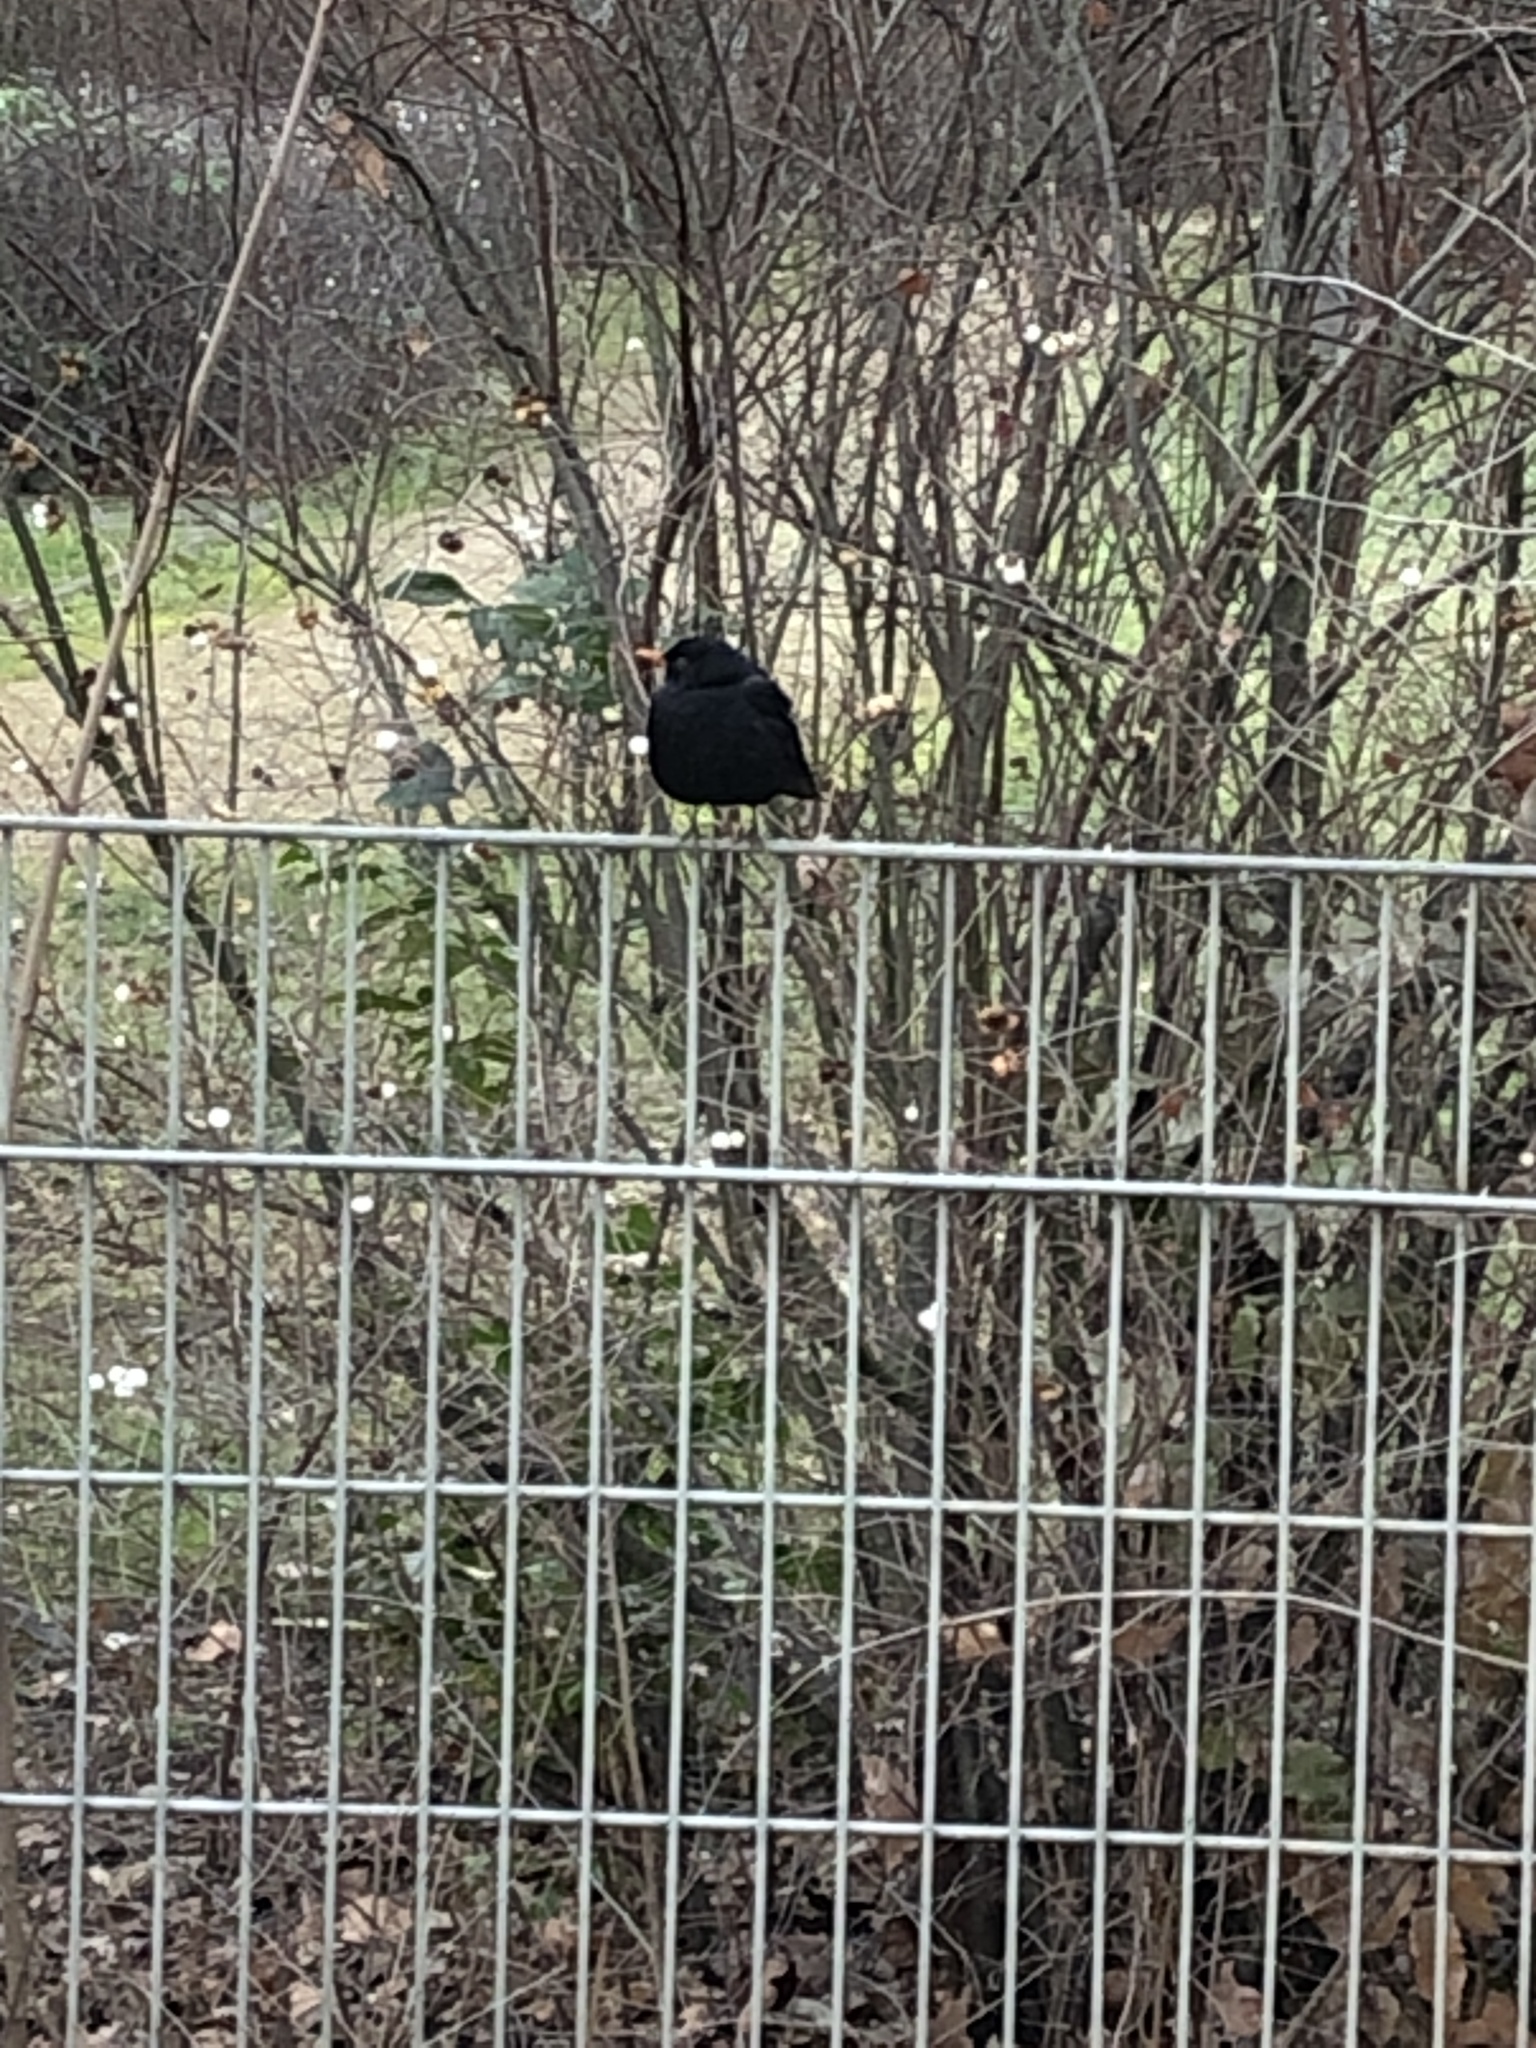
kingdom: Animalia
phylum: Chordata
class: Aves
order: Passeriformes
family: Turdidae
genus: Turdus
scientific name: Turdus merula
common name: Common blackbird
